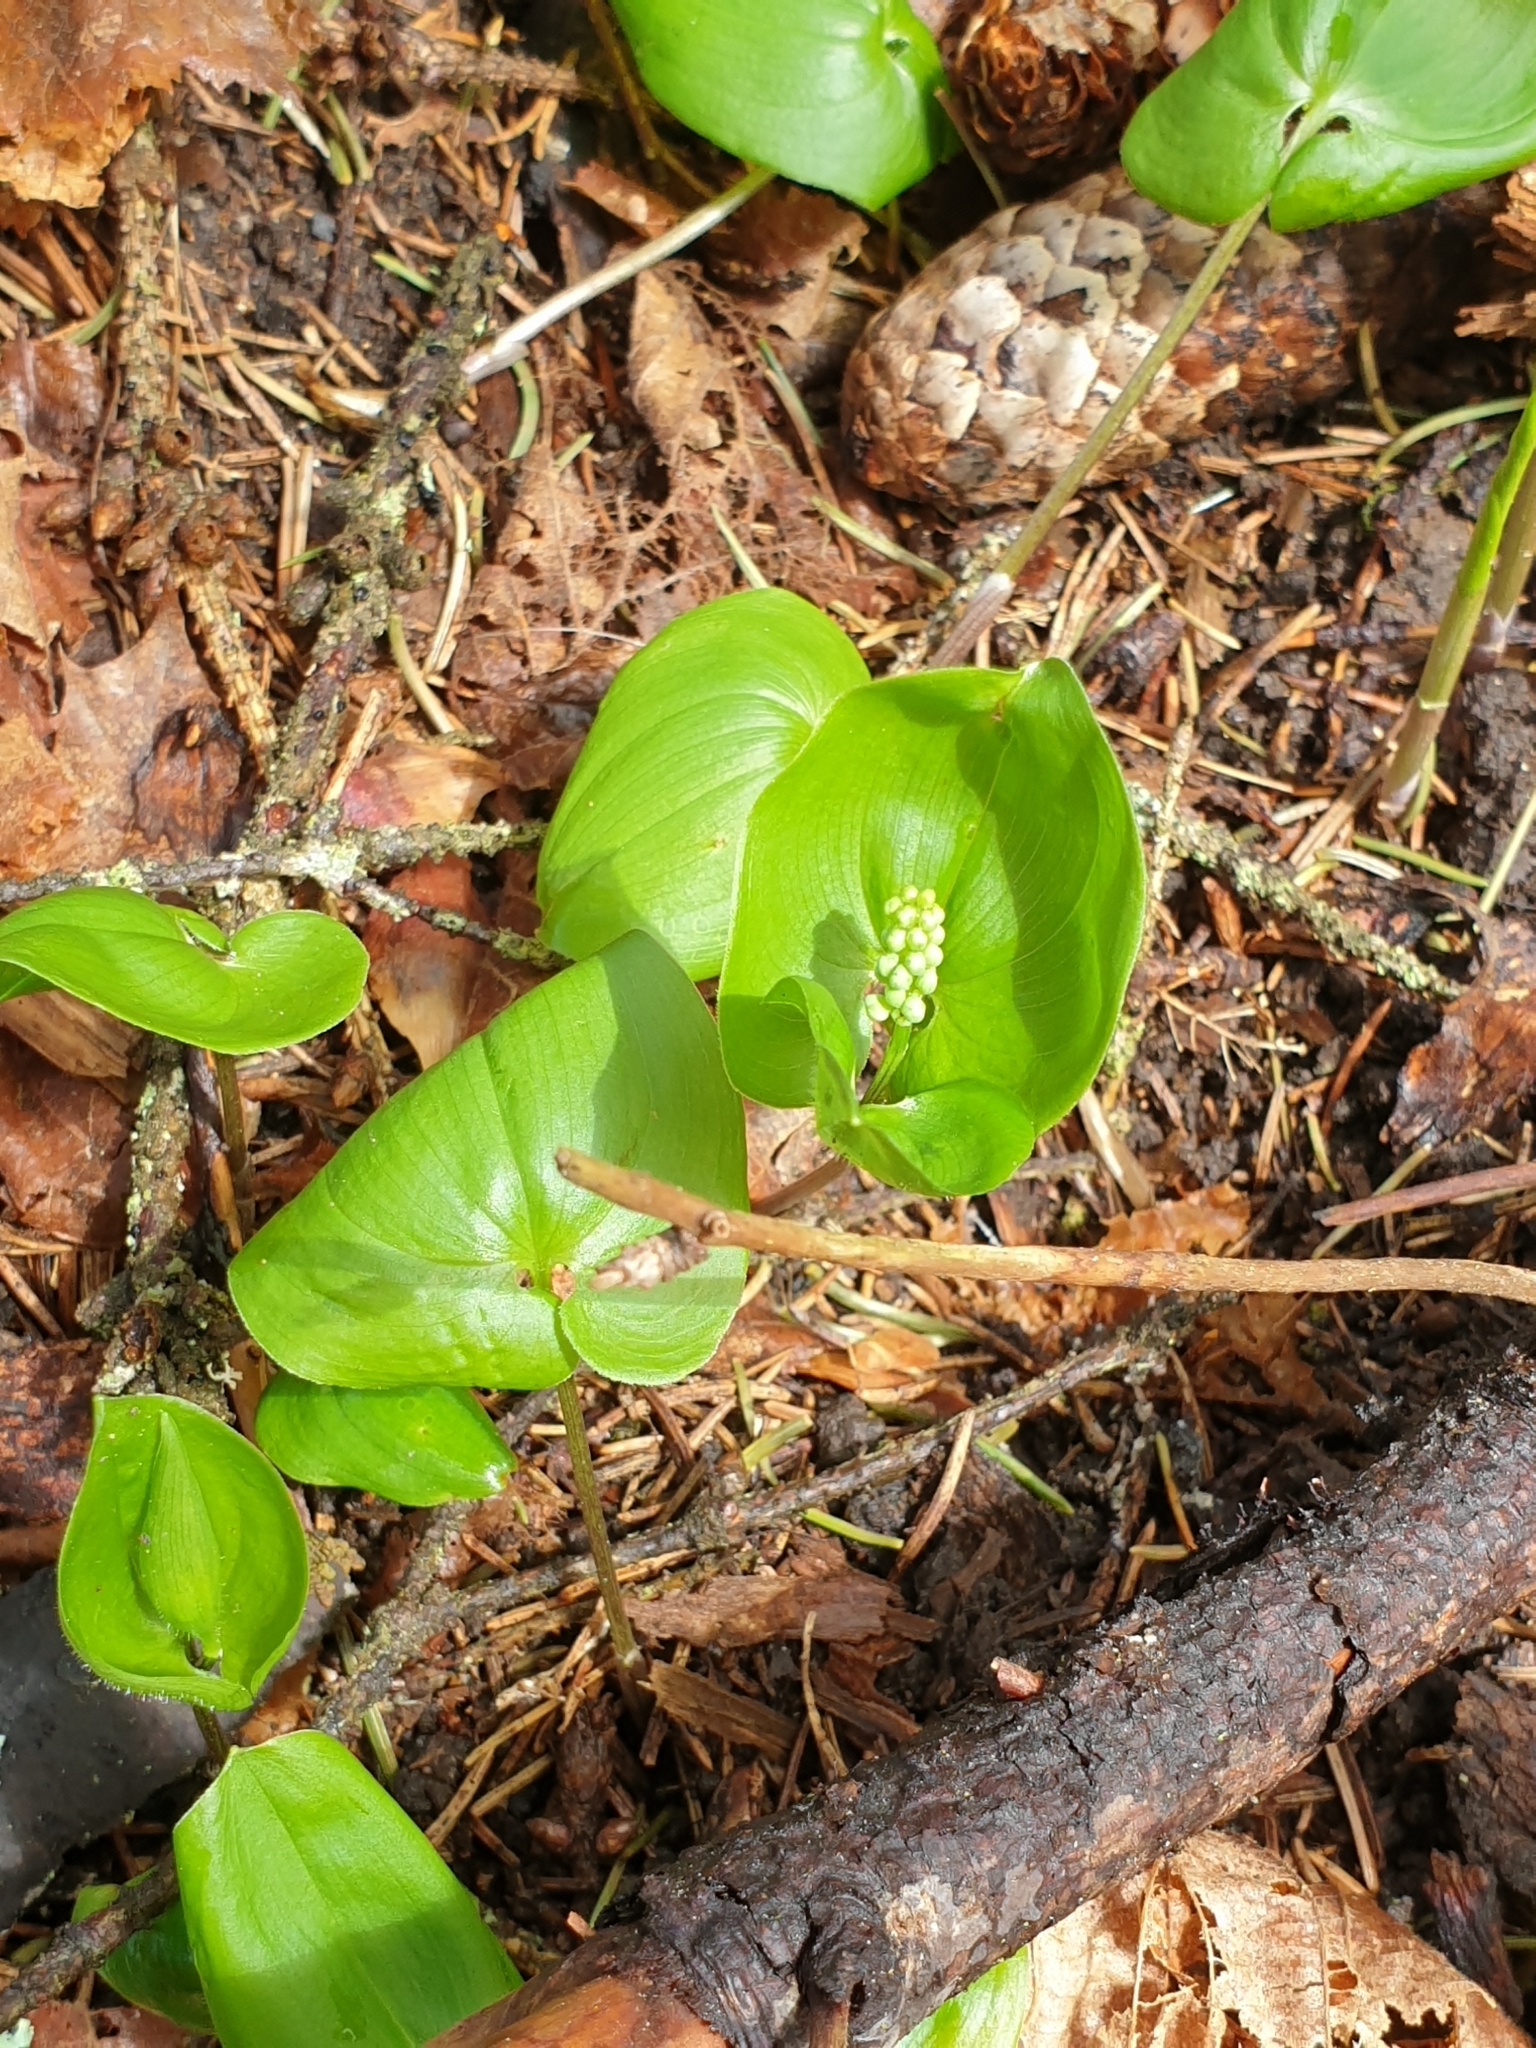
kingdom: Plantae
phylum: Tracheophyta
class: Liliopsida
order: Asparagales
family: Asparagaceae
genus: Maianthemum
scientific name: Maianthemum bifolium
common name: May lily
